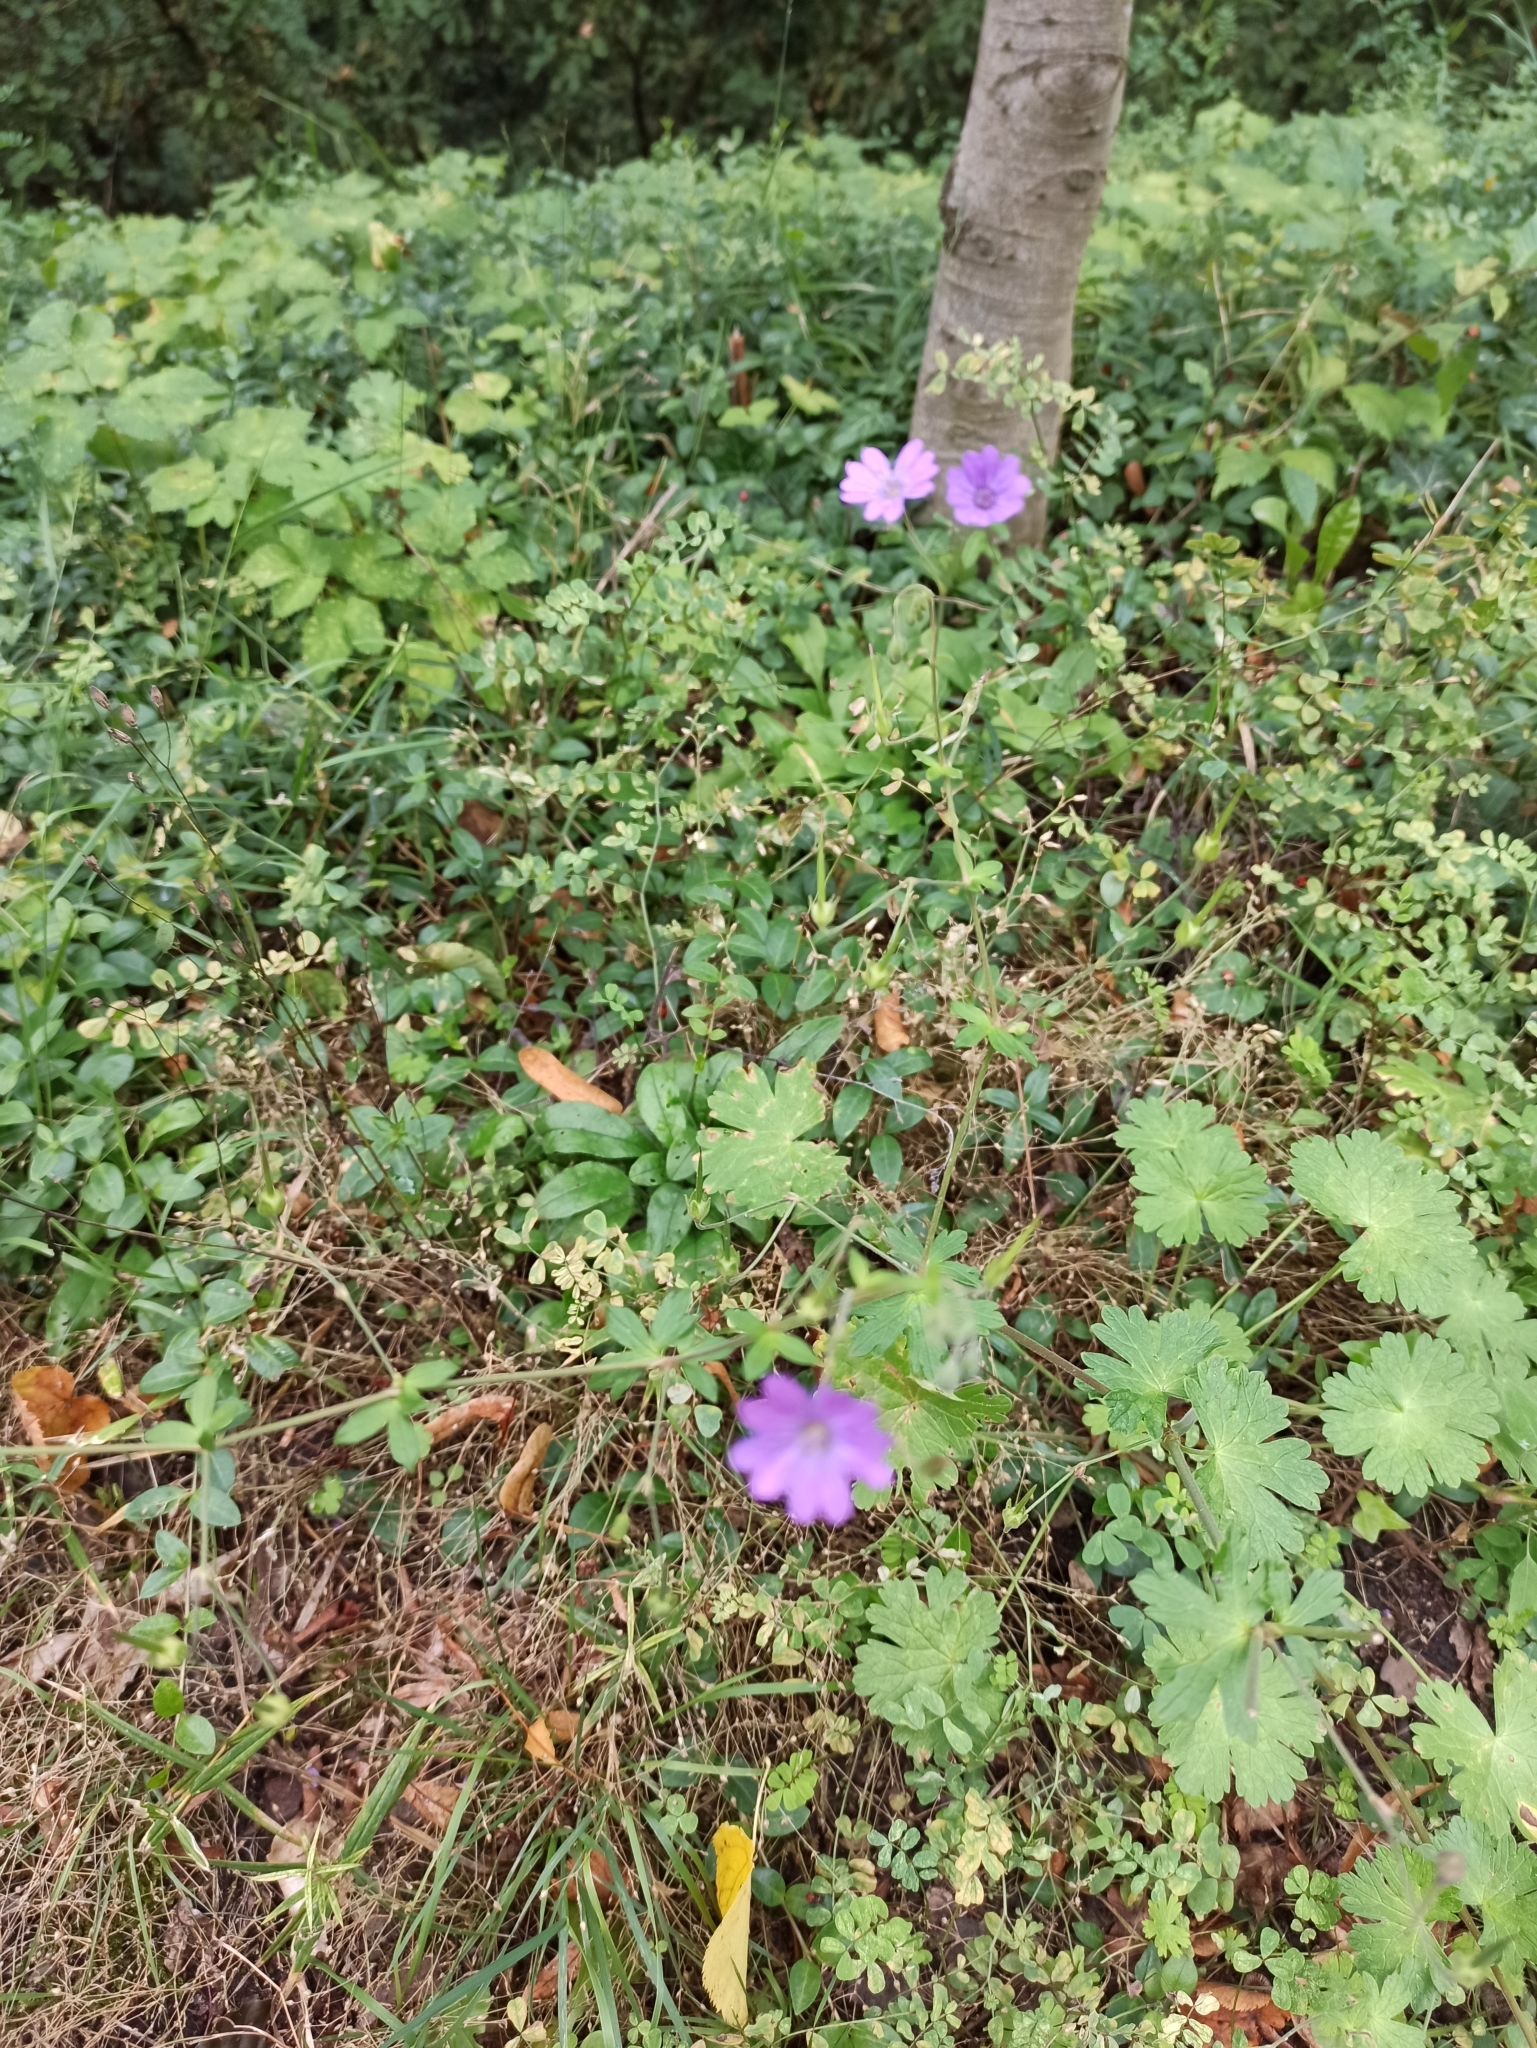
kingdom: Plantae
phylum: Tracheophyta
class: Magnoliopsida
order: Geraniales
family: Geraniaceae
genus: Geranium
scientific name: Geranium pyrenaicum
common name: Hedgerow crane's-bill
